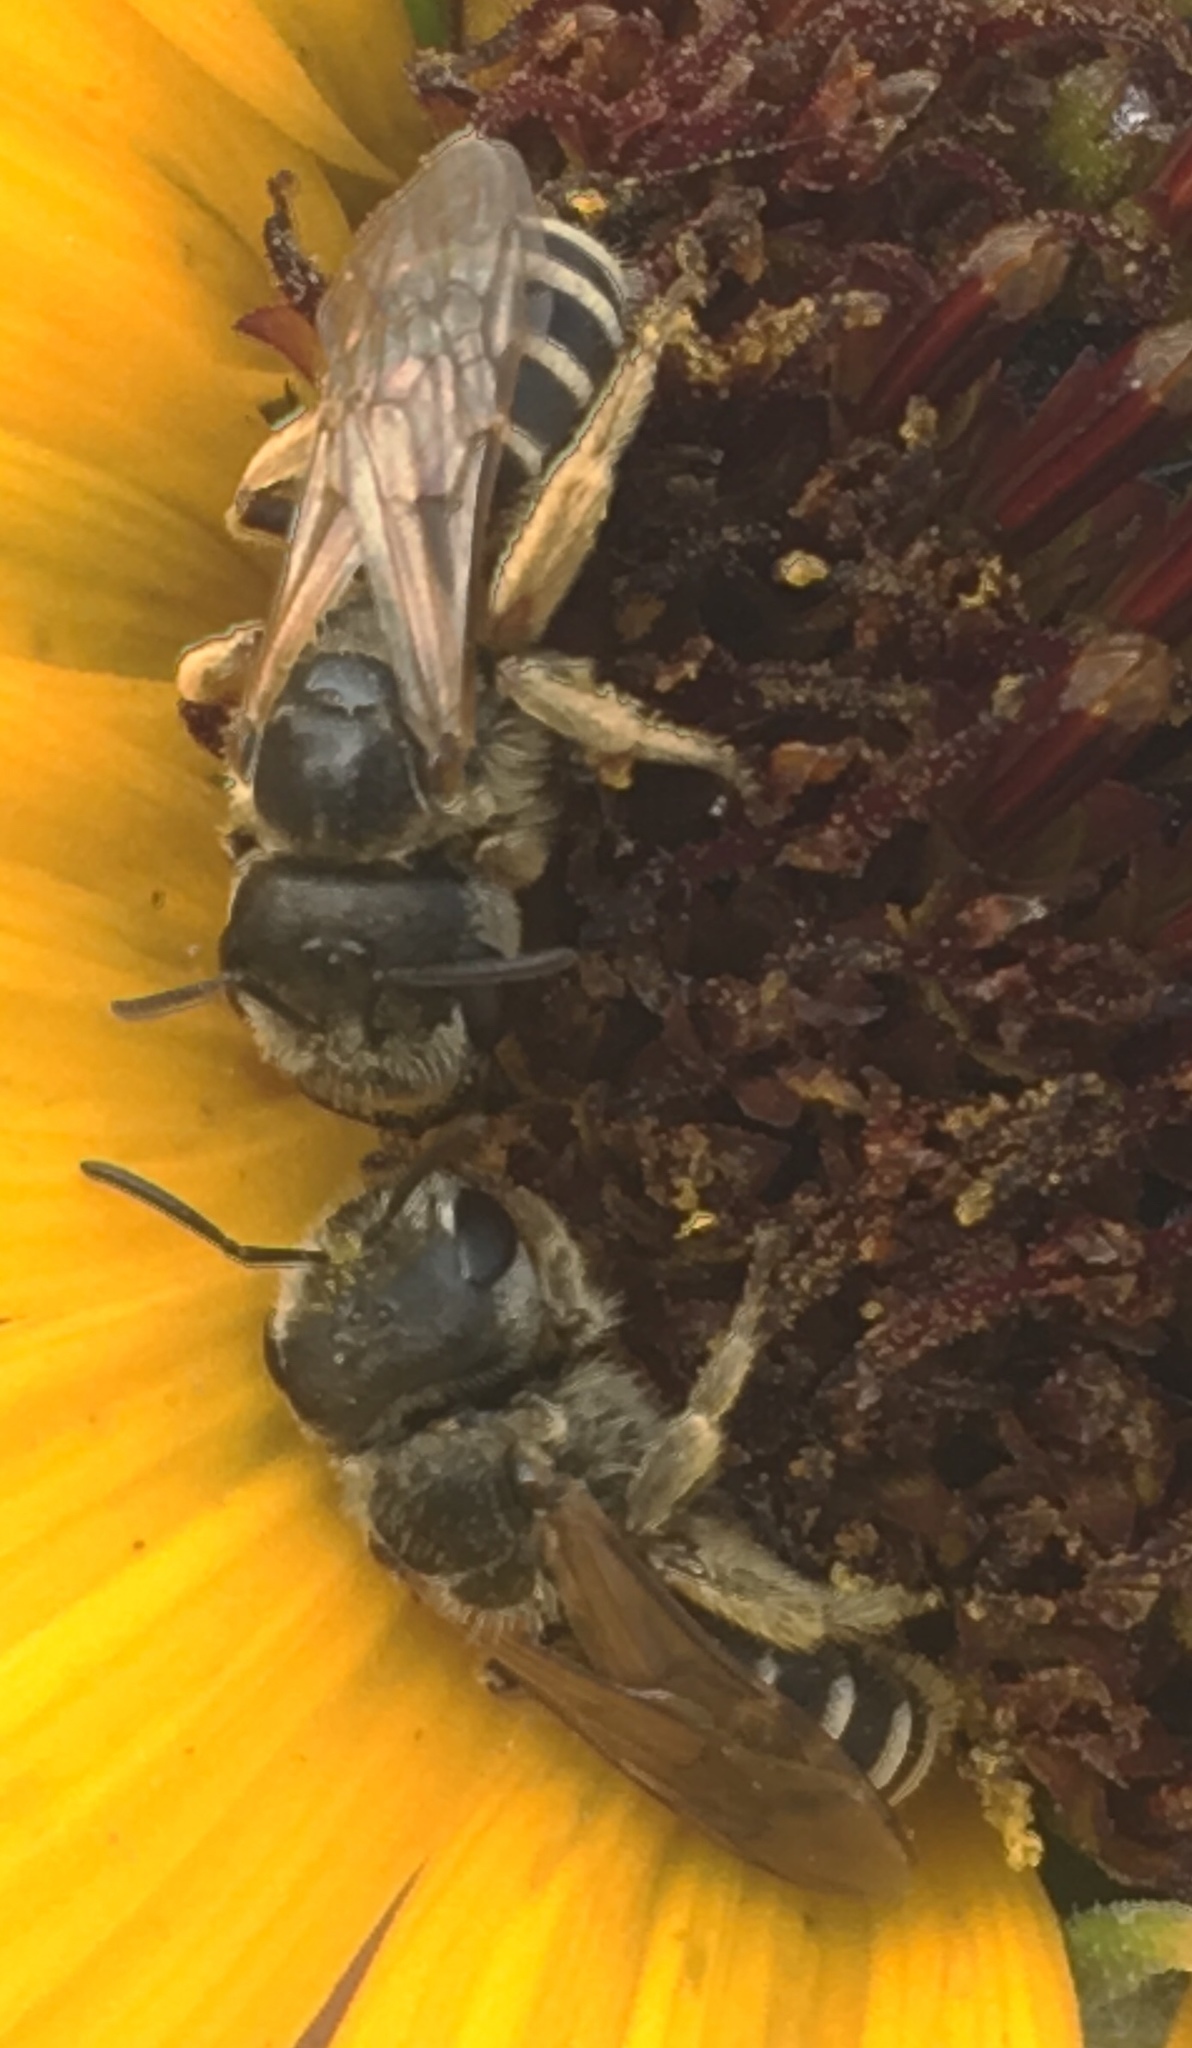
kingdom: Animalia
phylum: Arthropoda
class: Insecta
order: Hymenoptera
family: Halictidae
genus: Halictus
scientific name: Halictus ligatus
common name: Ligated furrow bee
